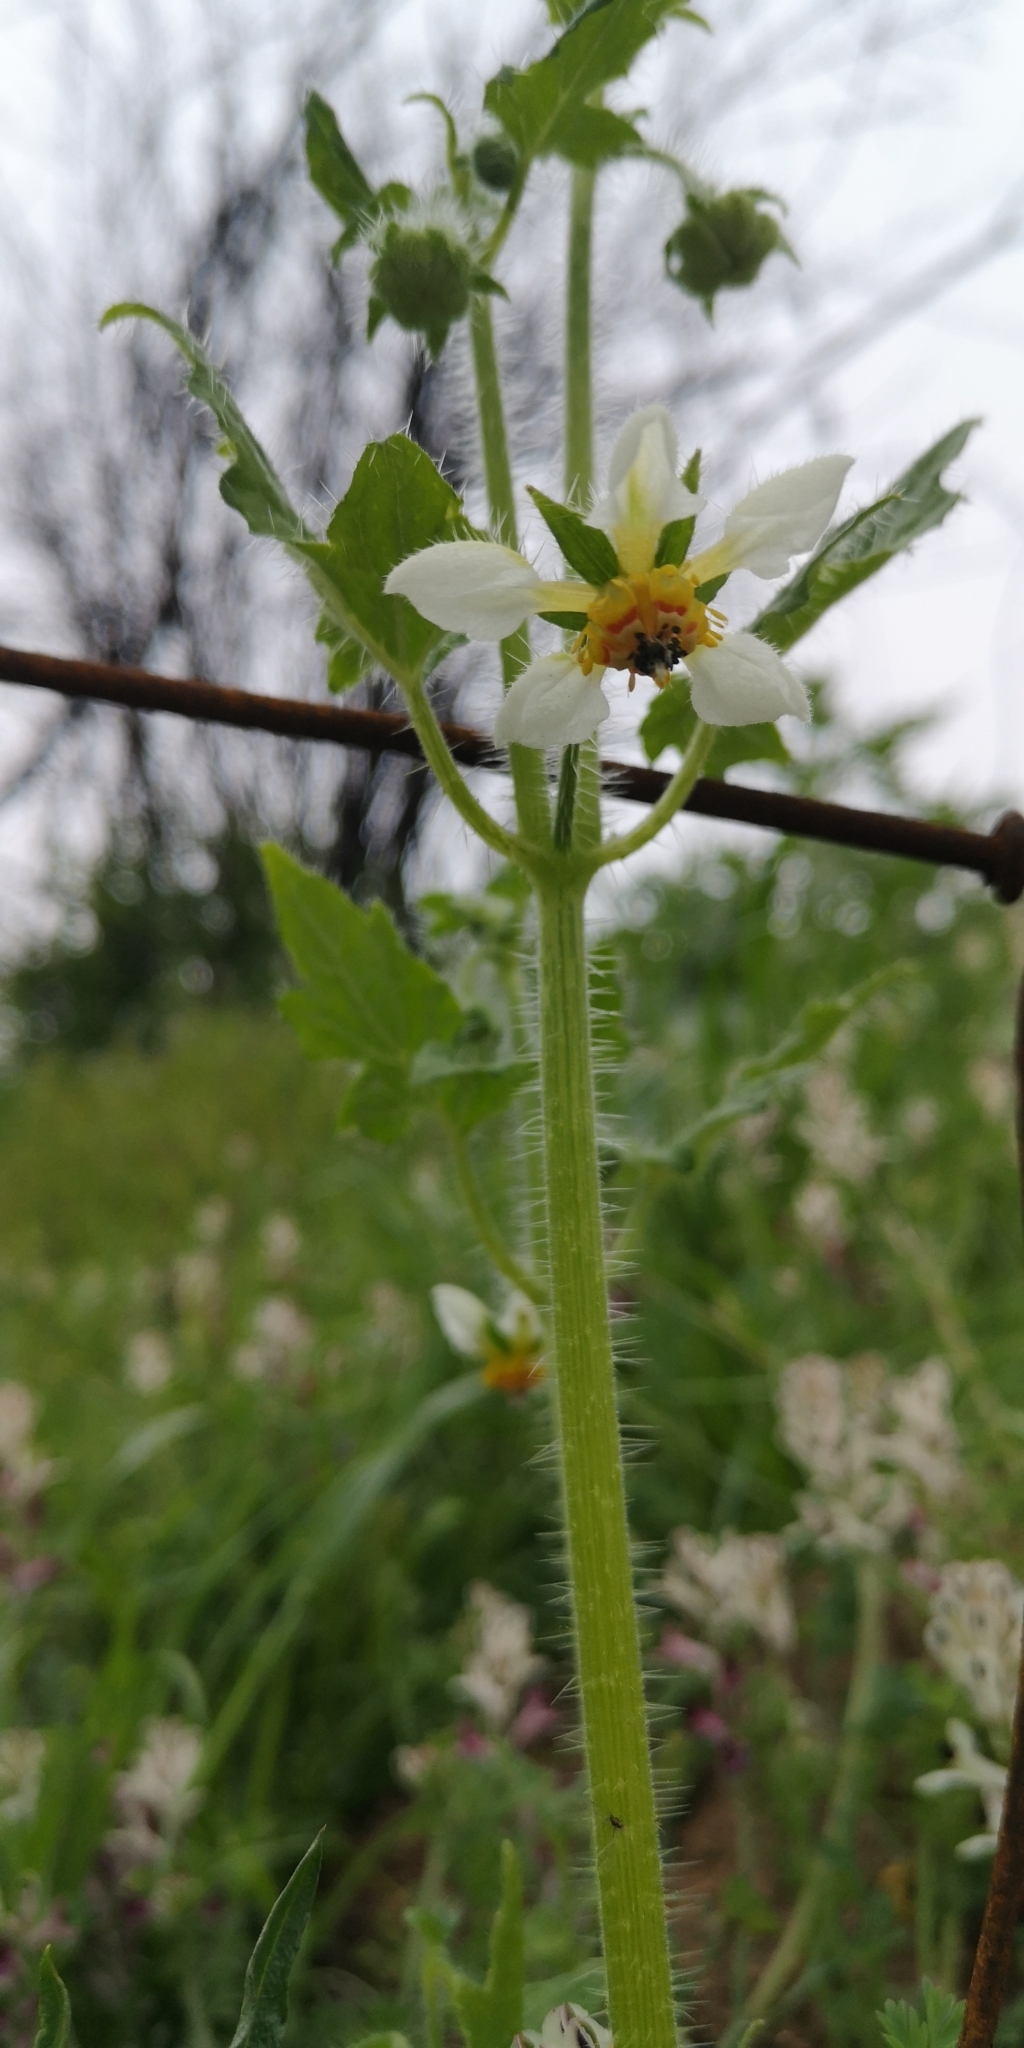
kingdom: Plantae
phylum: Tracheophyta
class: Magnoliopsida
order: Cornales
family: Loasaceae
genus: Loasa
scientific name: Loasa triloba
